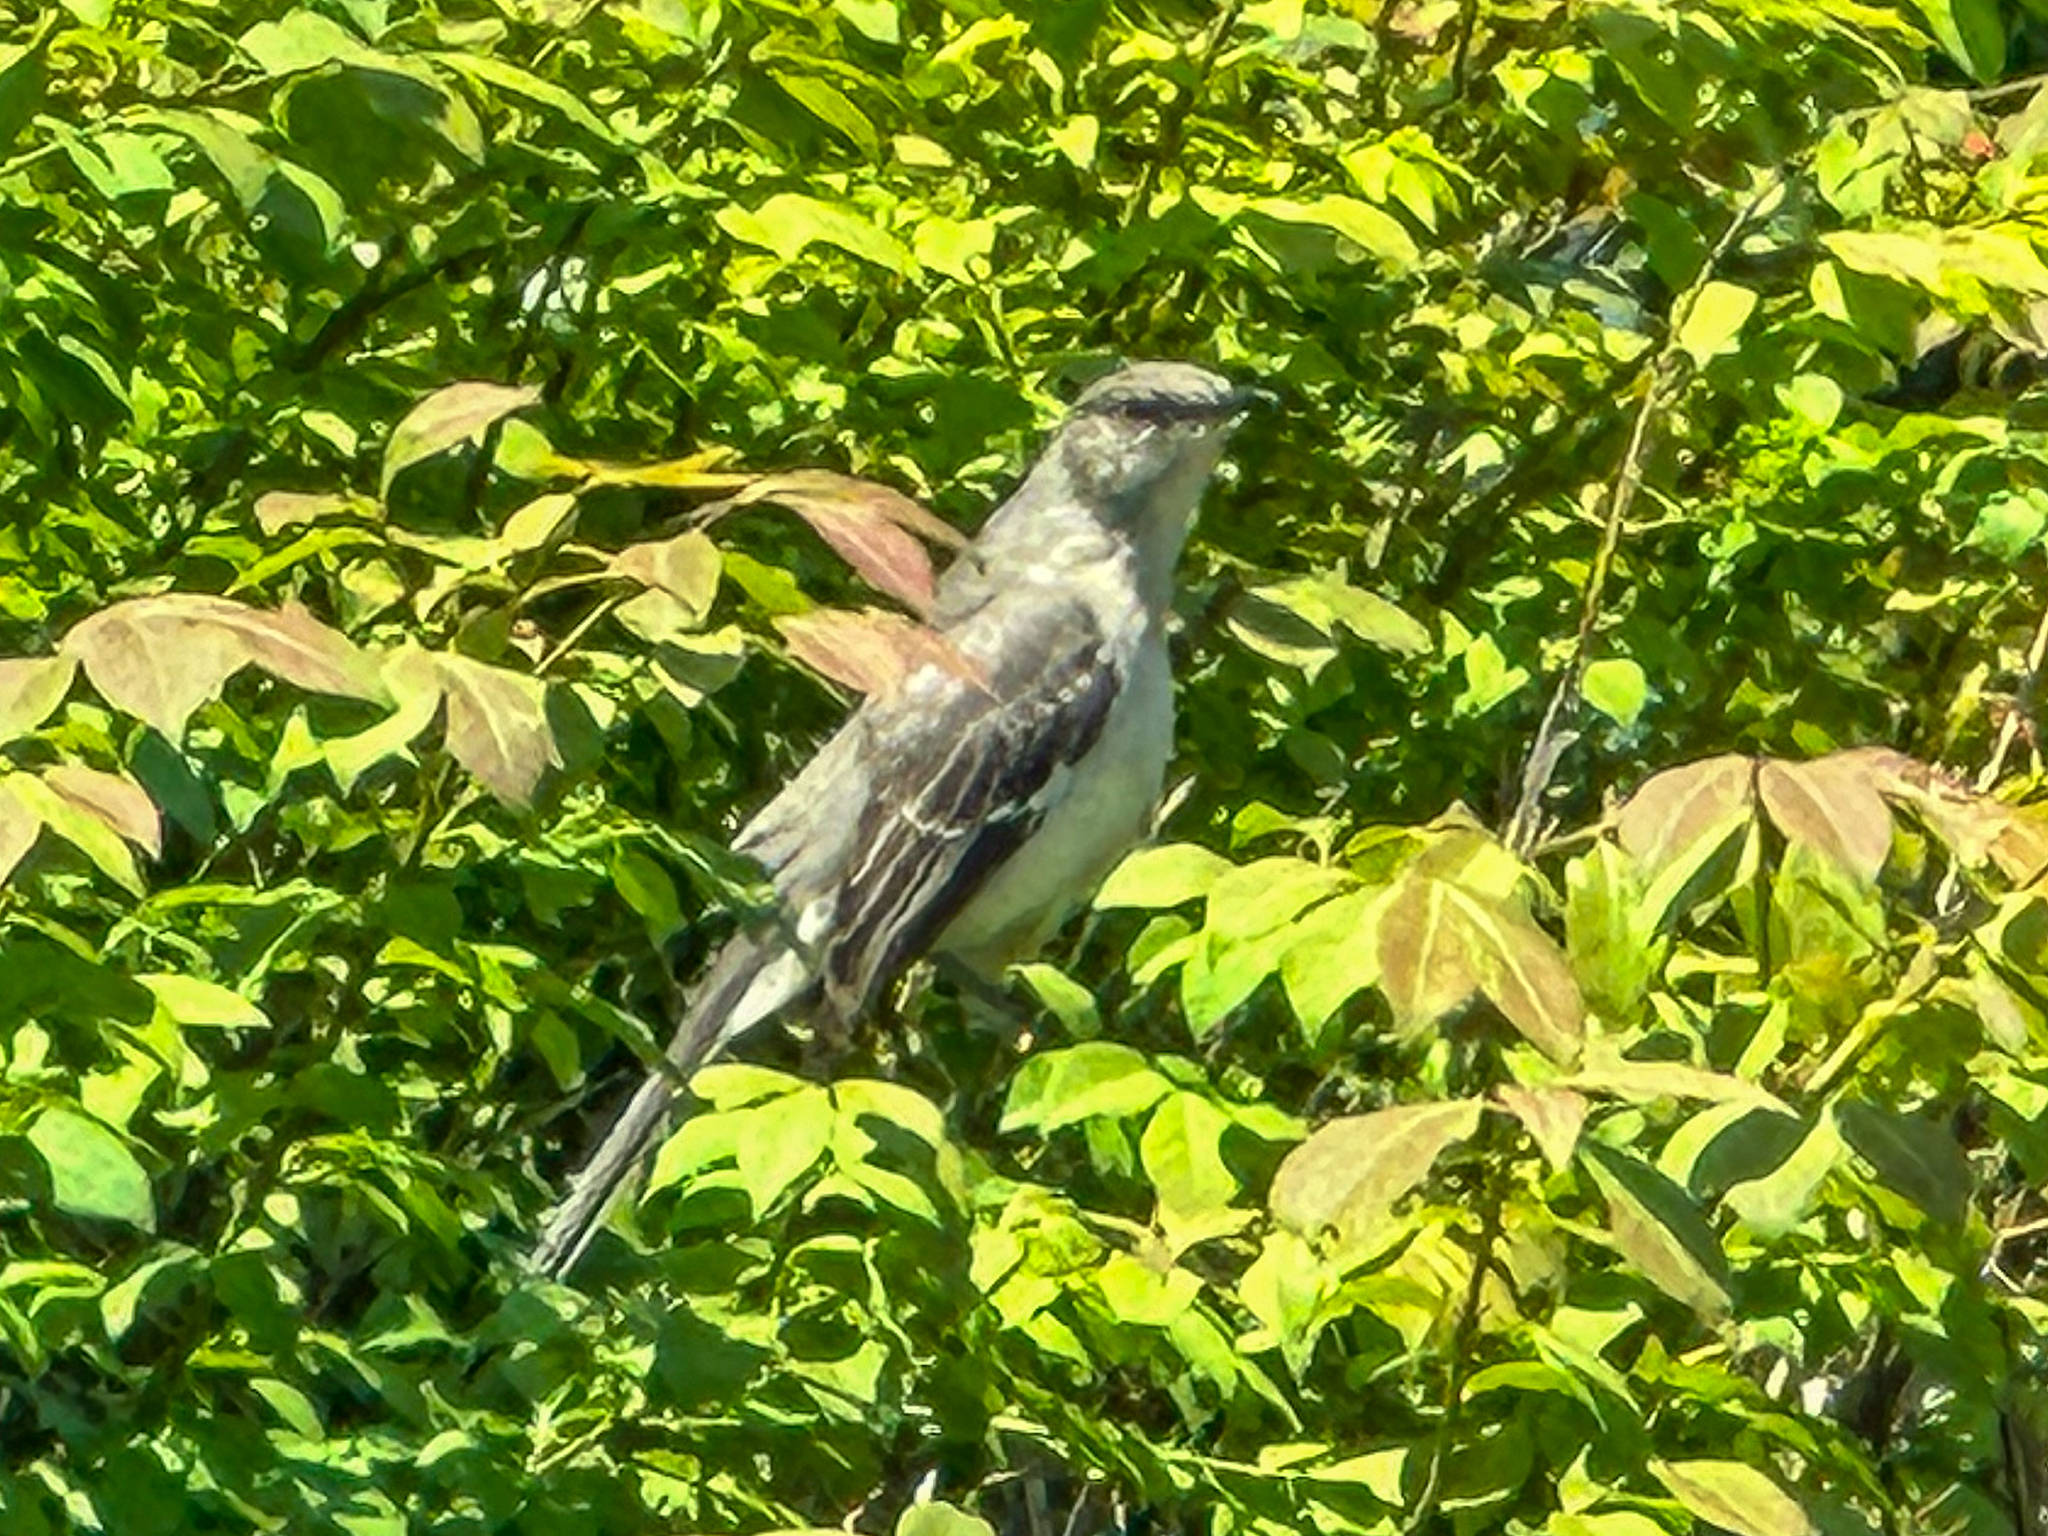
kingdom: Animalia
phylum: Chordata
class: Aves
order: Passeriformes
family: Mimidae
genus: Mimus
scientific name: Mimus polyglottos
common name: Northern mockingbird
